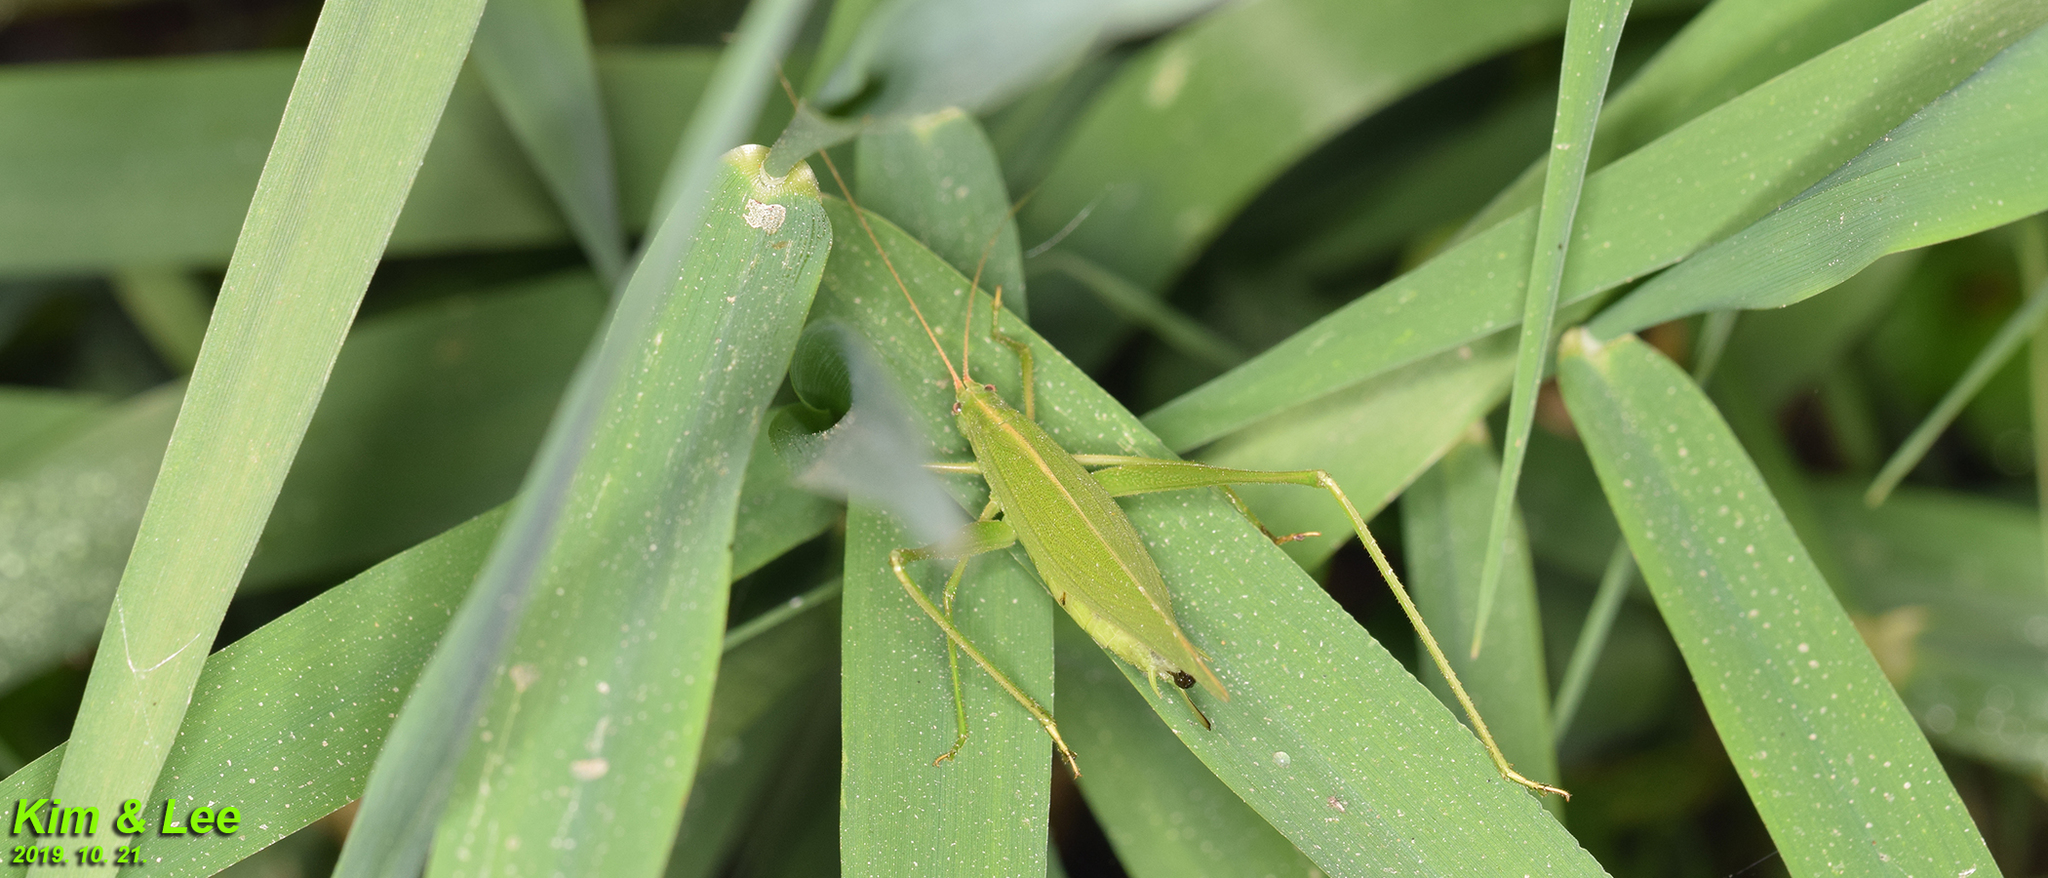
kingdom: Animalia
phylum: Arthropoda
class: Insecta
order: Orthoptera
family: Tettigoniidae
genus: Ducetia
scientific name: Ducetia japonica
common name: Pacific ducetia
